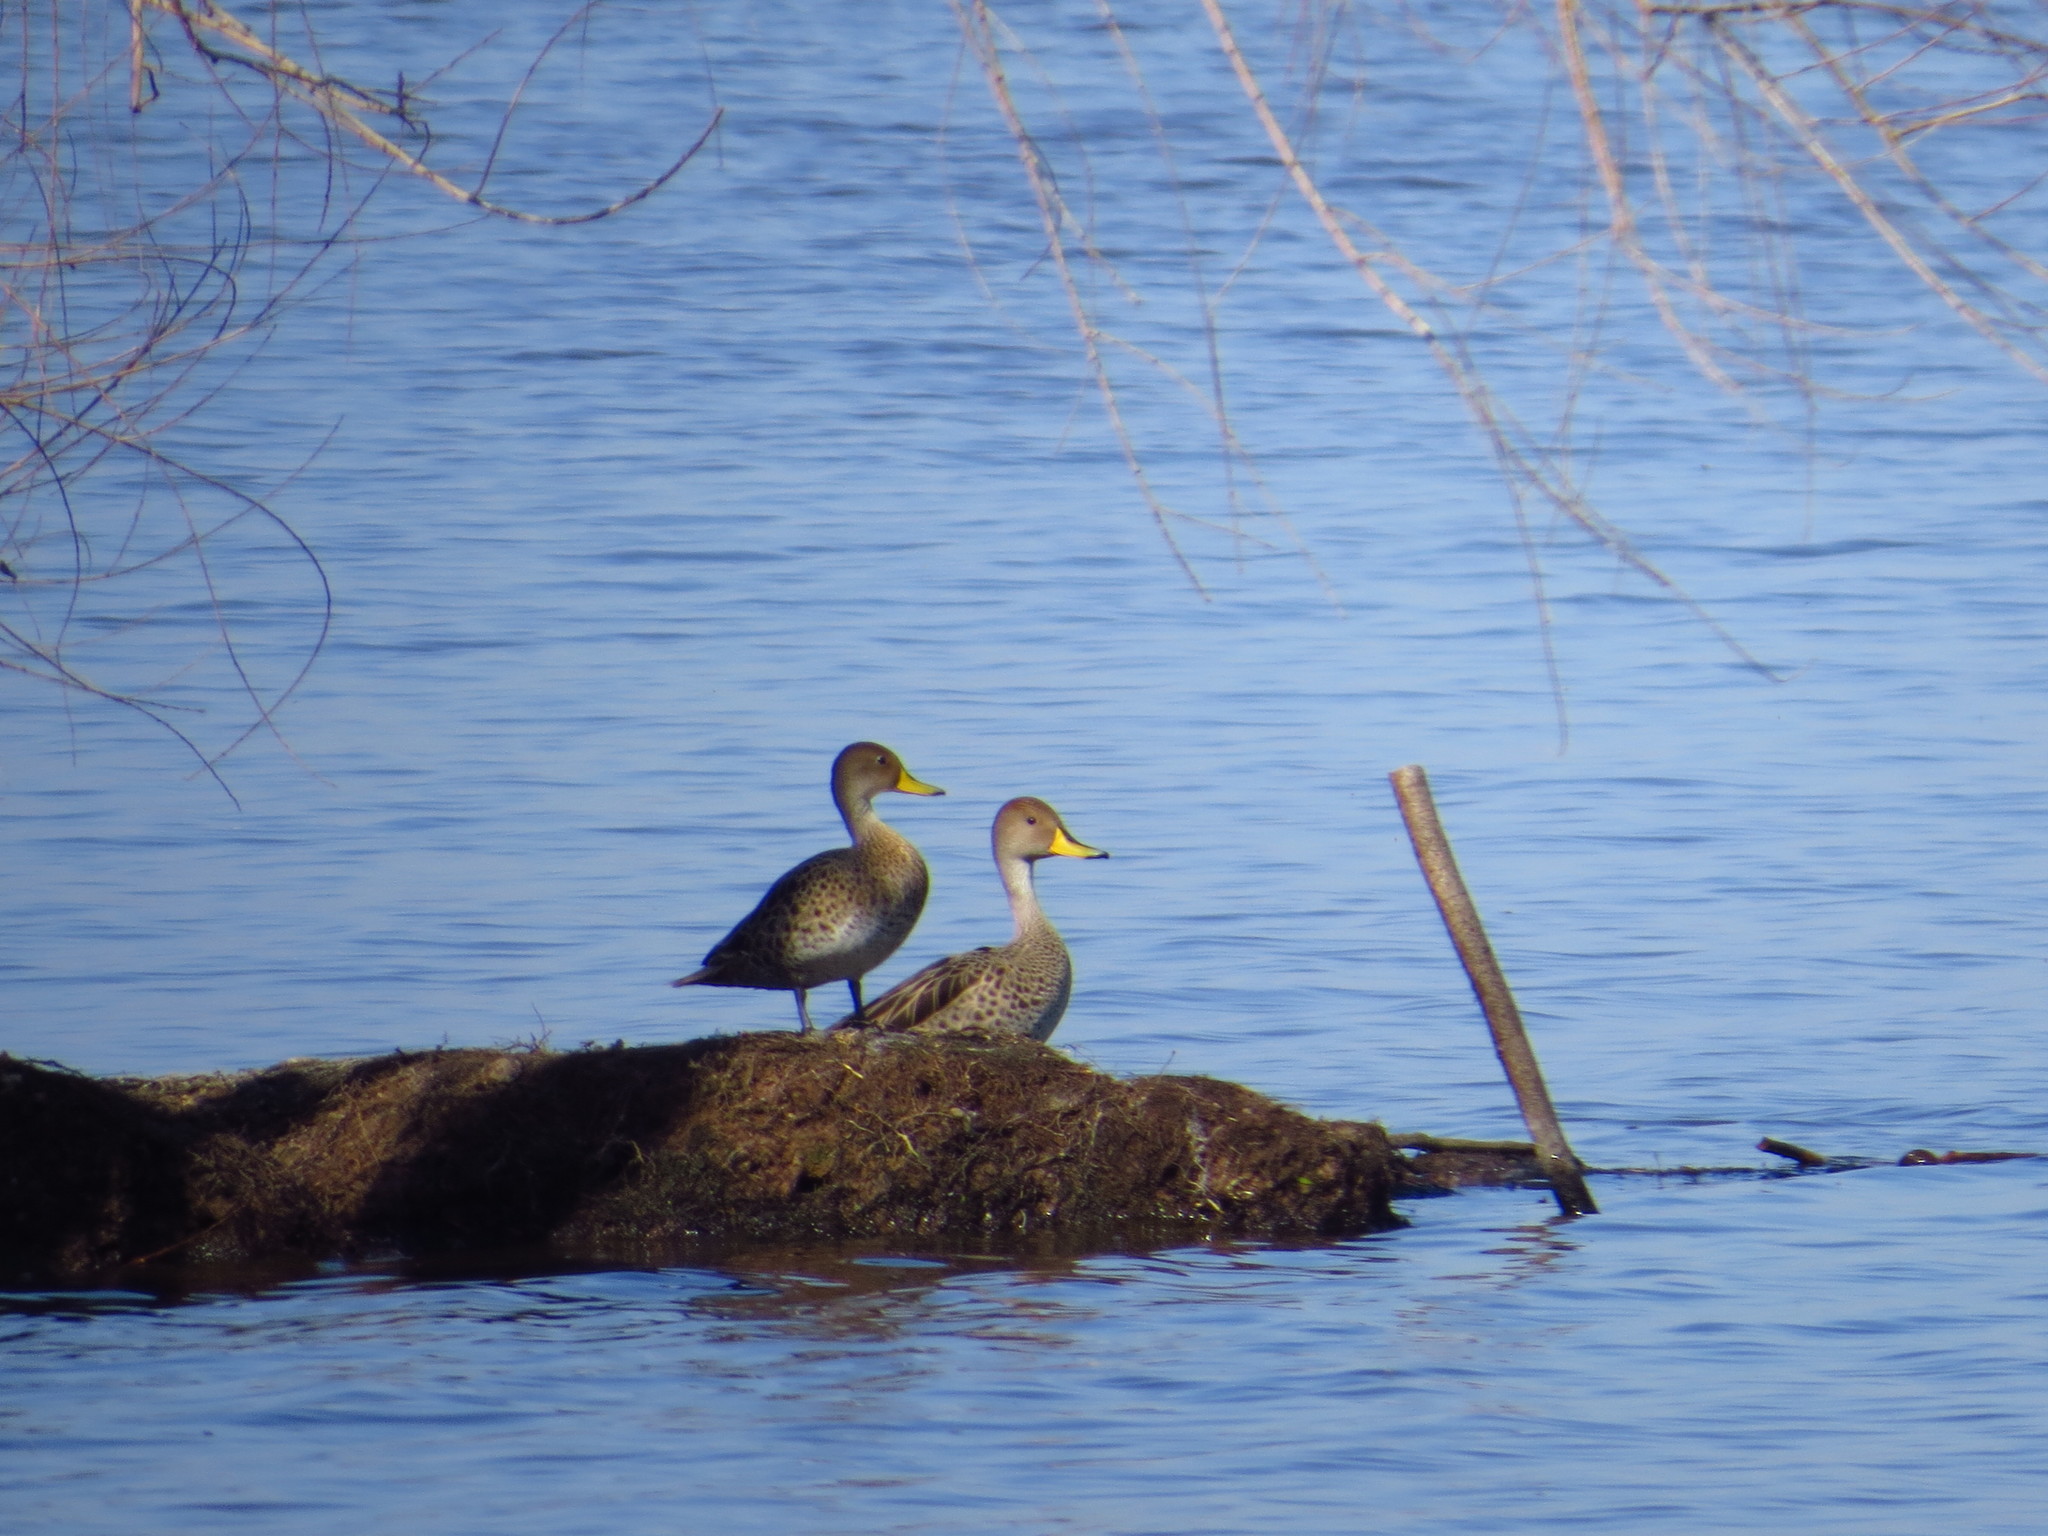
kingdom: Animalia
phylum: Chordata
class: Aves
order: Anseriformes
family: Anatidae
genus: Anas
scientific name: Anas georgica
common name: Yellow-billed pintail
